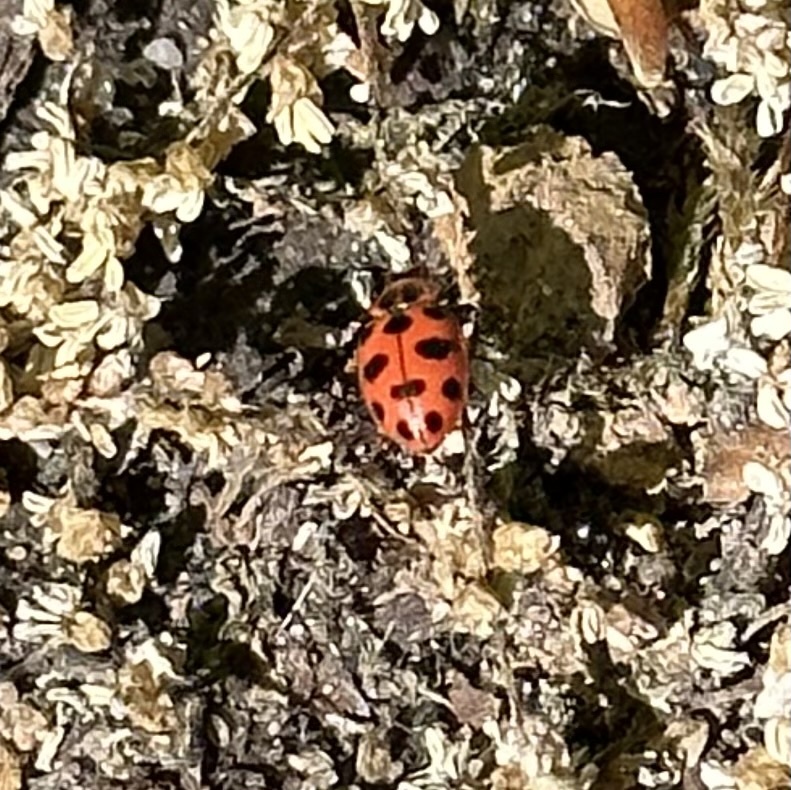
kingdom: Animalia
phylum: Arthropoda
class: Insecta
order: Coleoptera
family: Coccinellidae
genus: Coleomegilla
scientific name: Coleomegilla maculata
